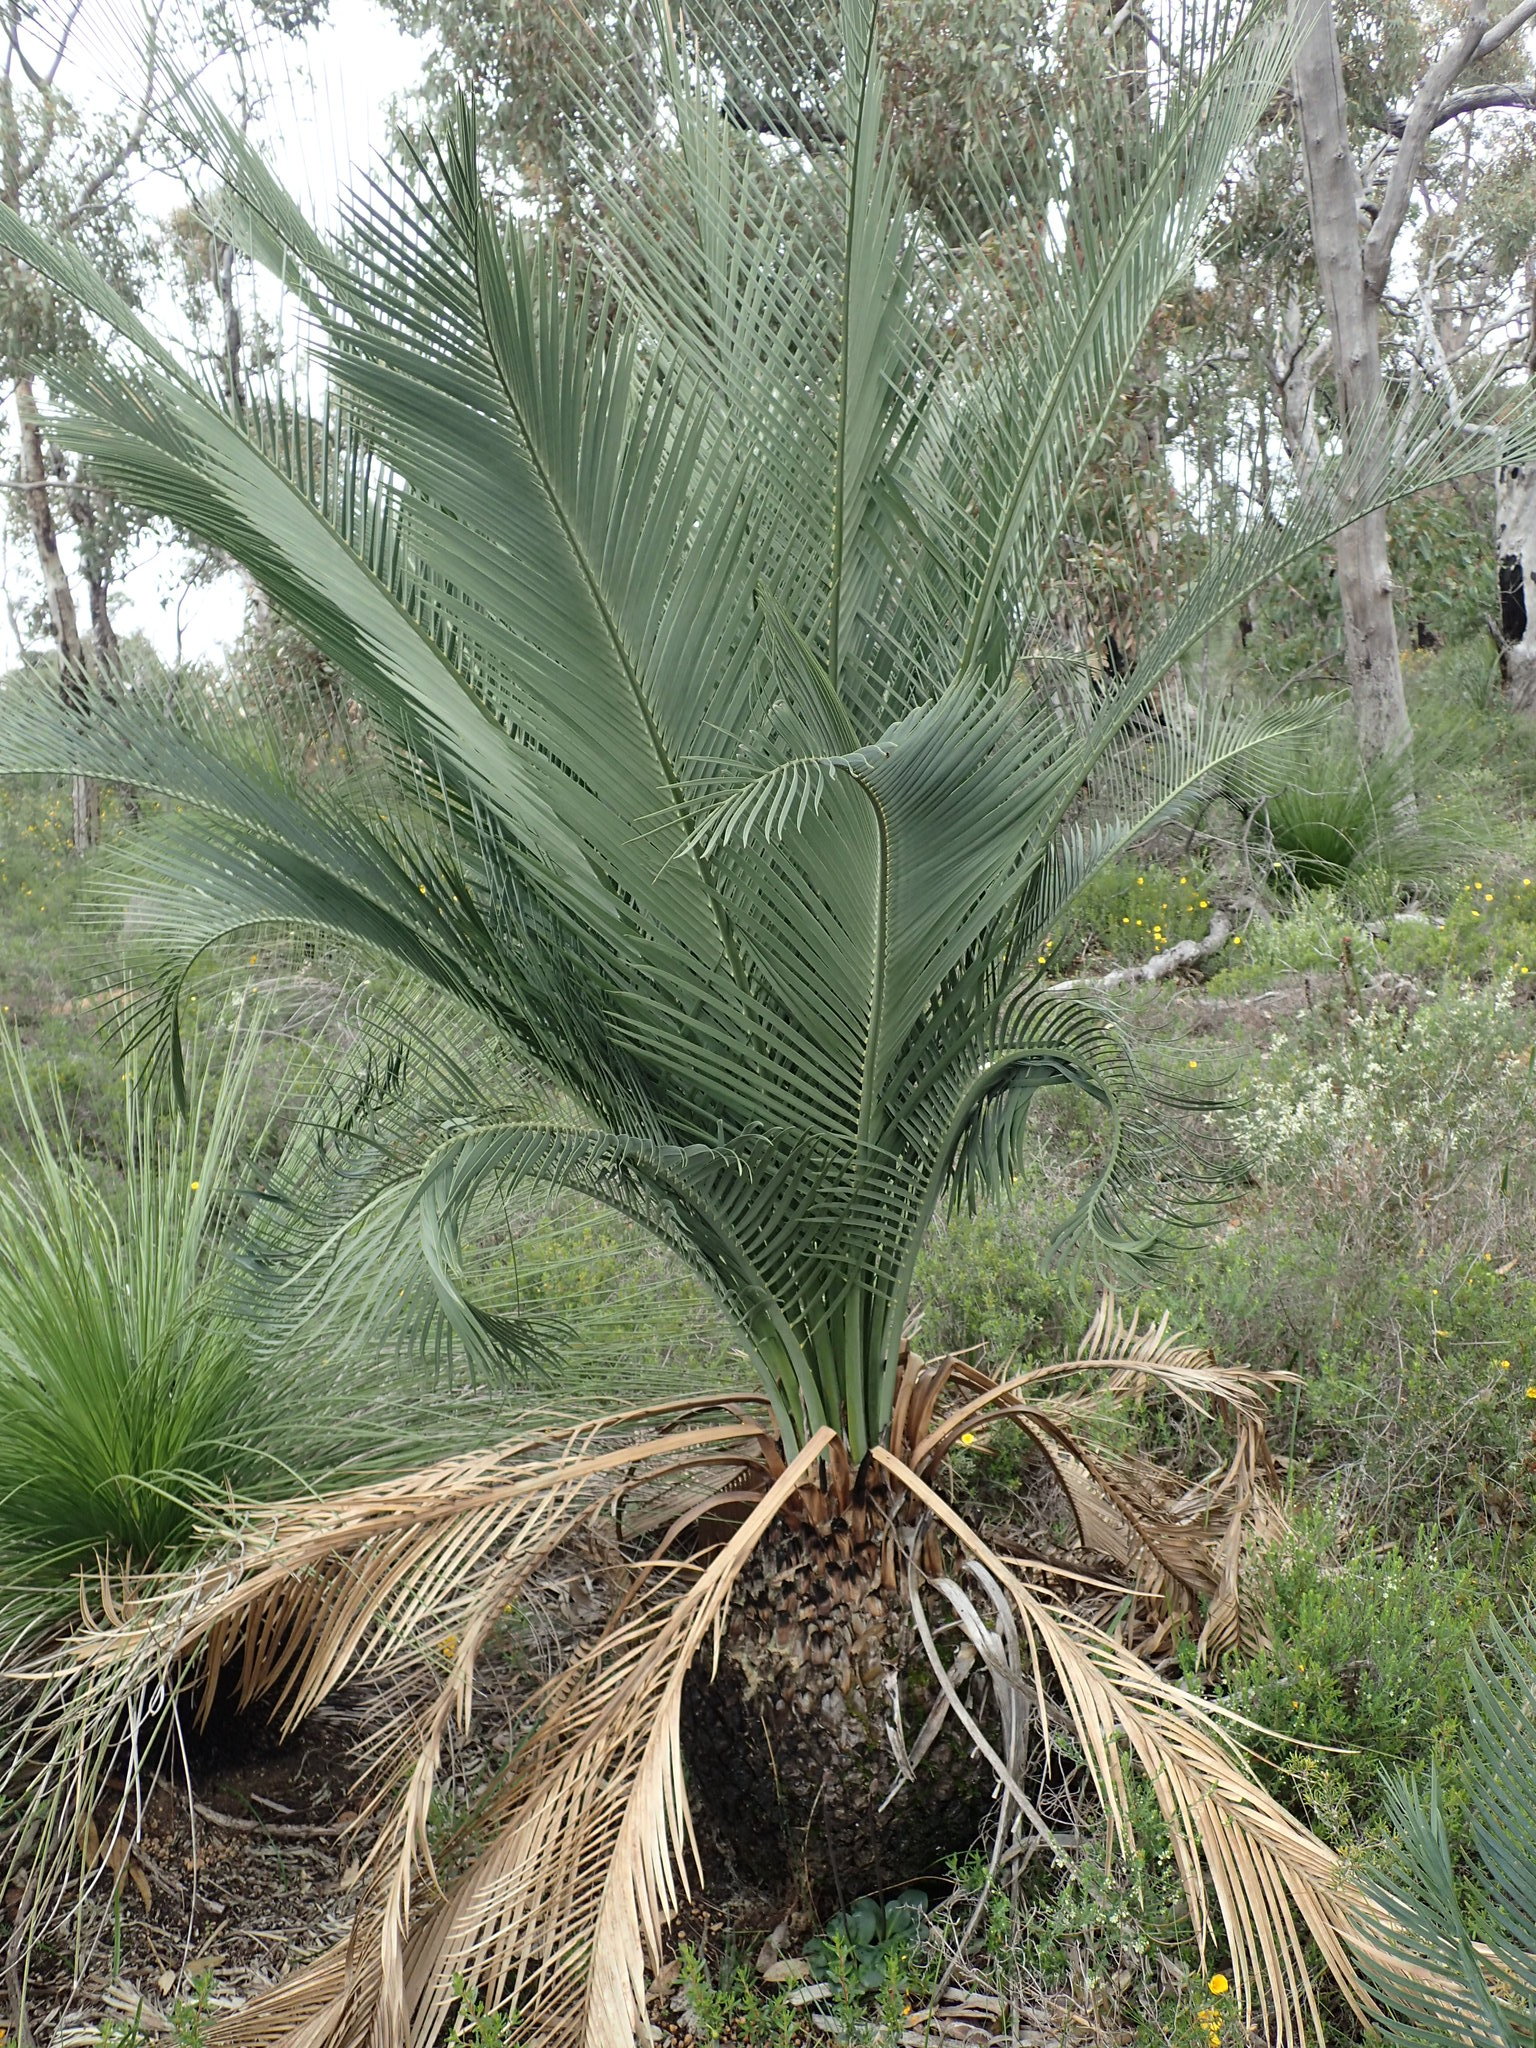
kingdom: Plantae
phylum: Tracheophyta
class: Cycadopsida
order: Cycadales
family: Zamiaceae
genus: Macrozamia
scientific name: Macrozamia riedlei
